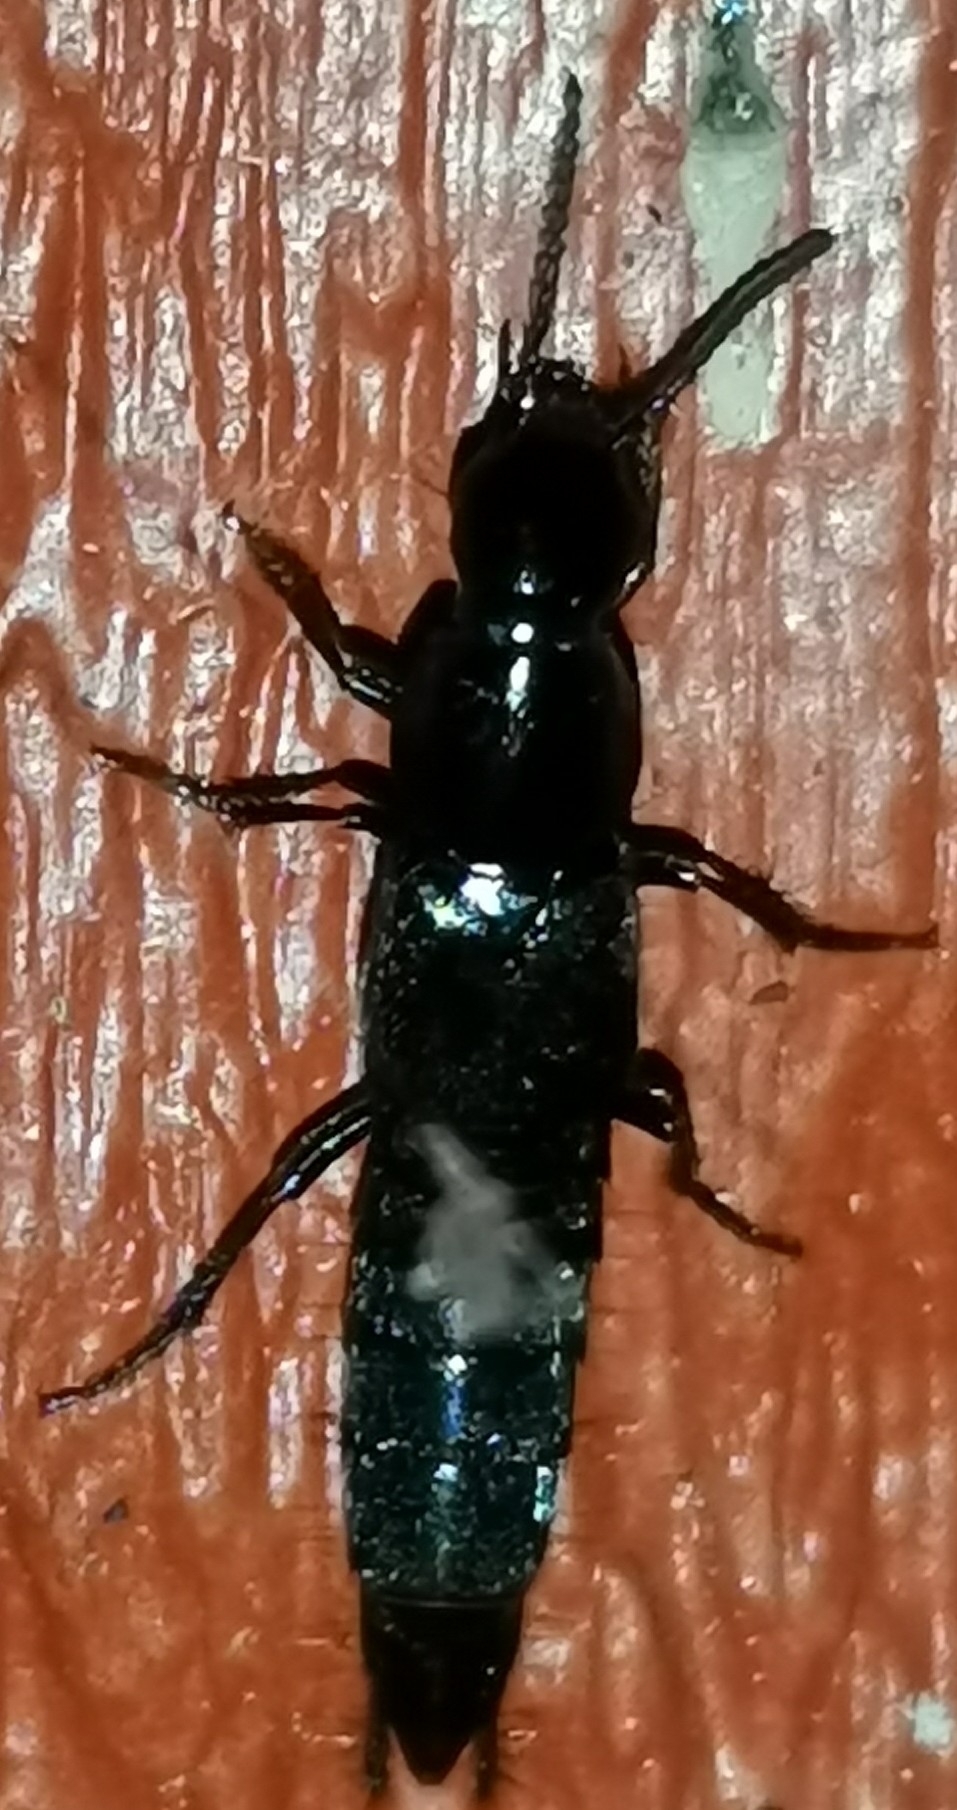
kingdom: Animalia
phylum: Arthropoda
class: Insecta
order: Coleoptera
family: Staphylinidae
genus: Quedius
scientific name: Quedius mesomelinus
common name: Staph beetle
